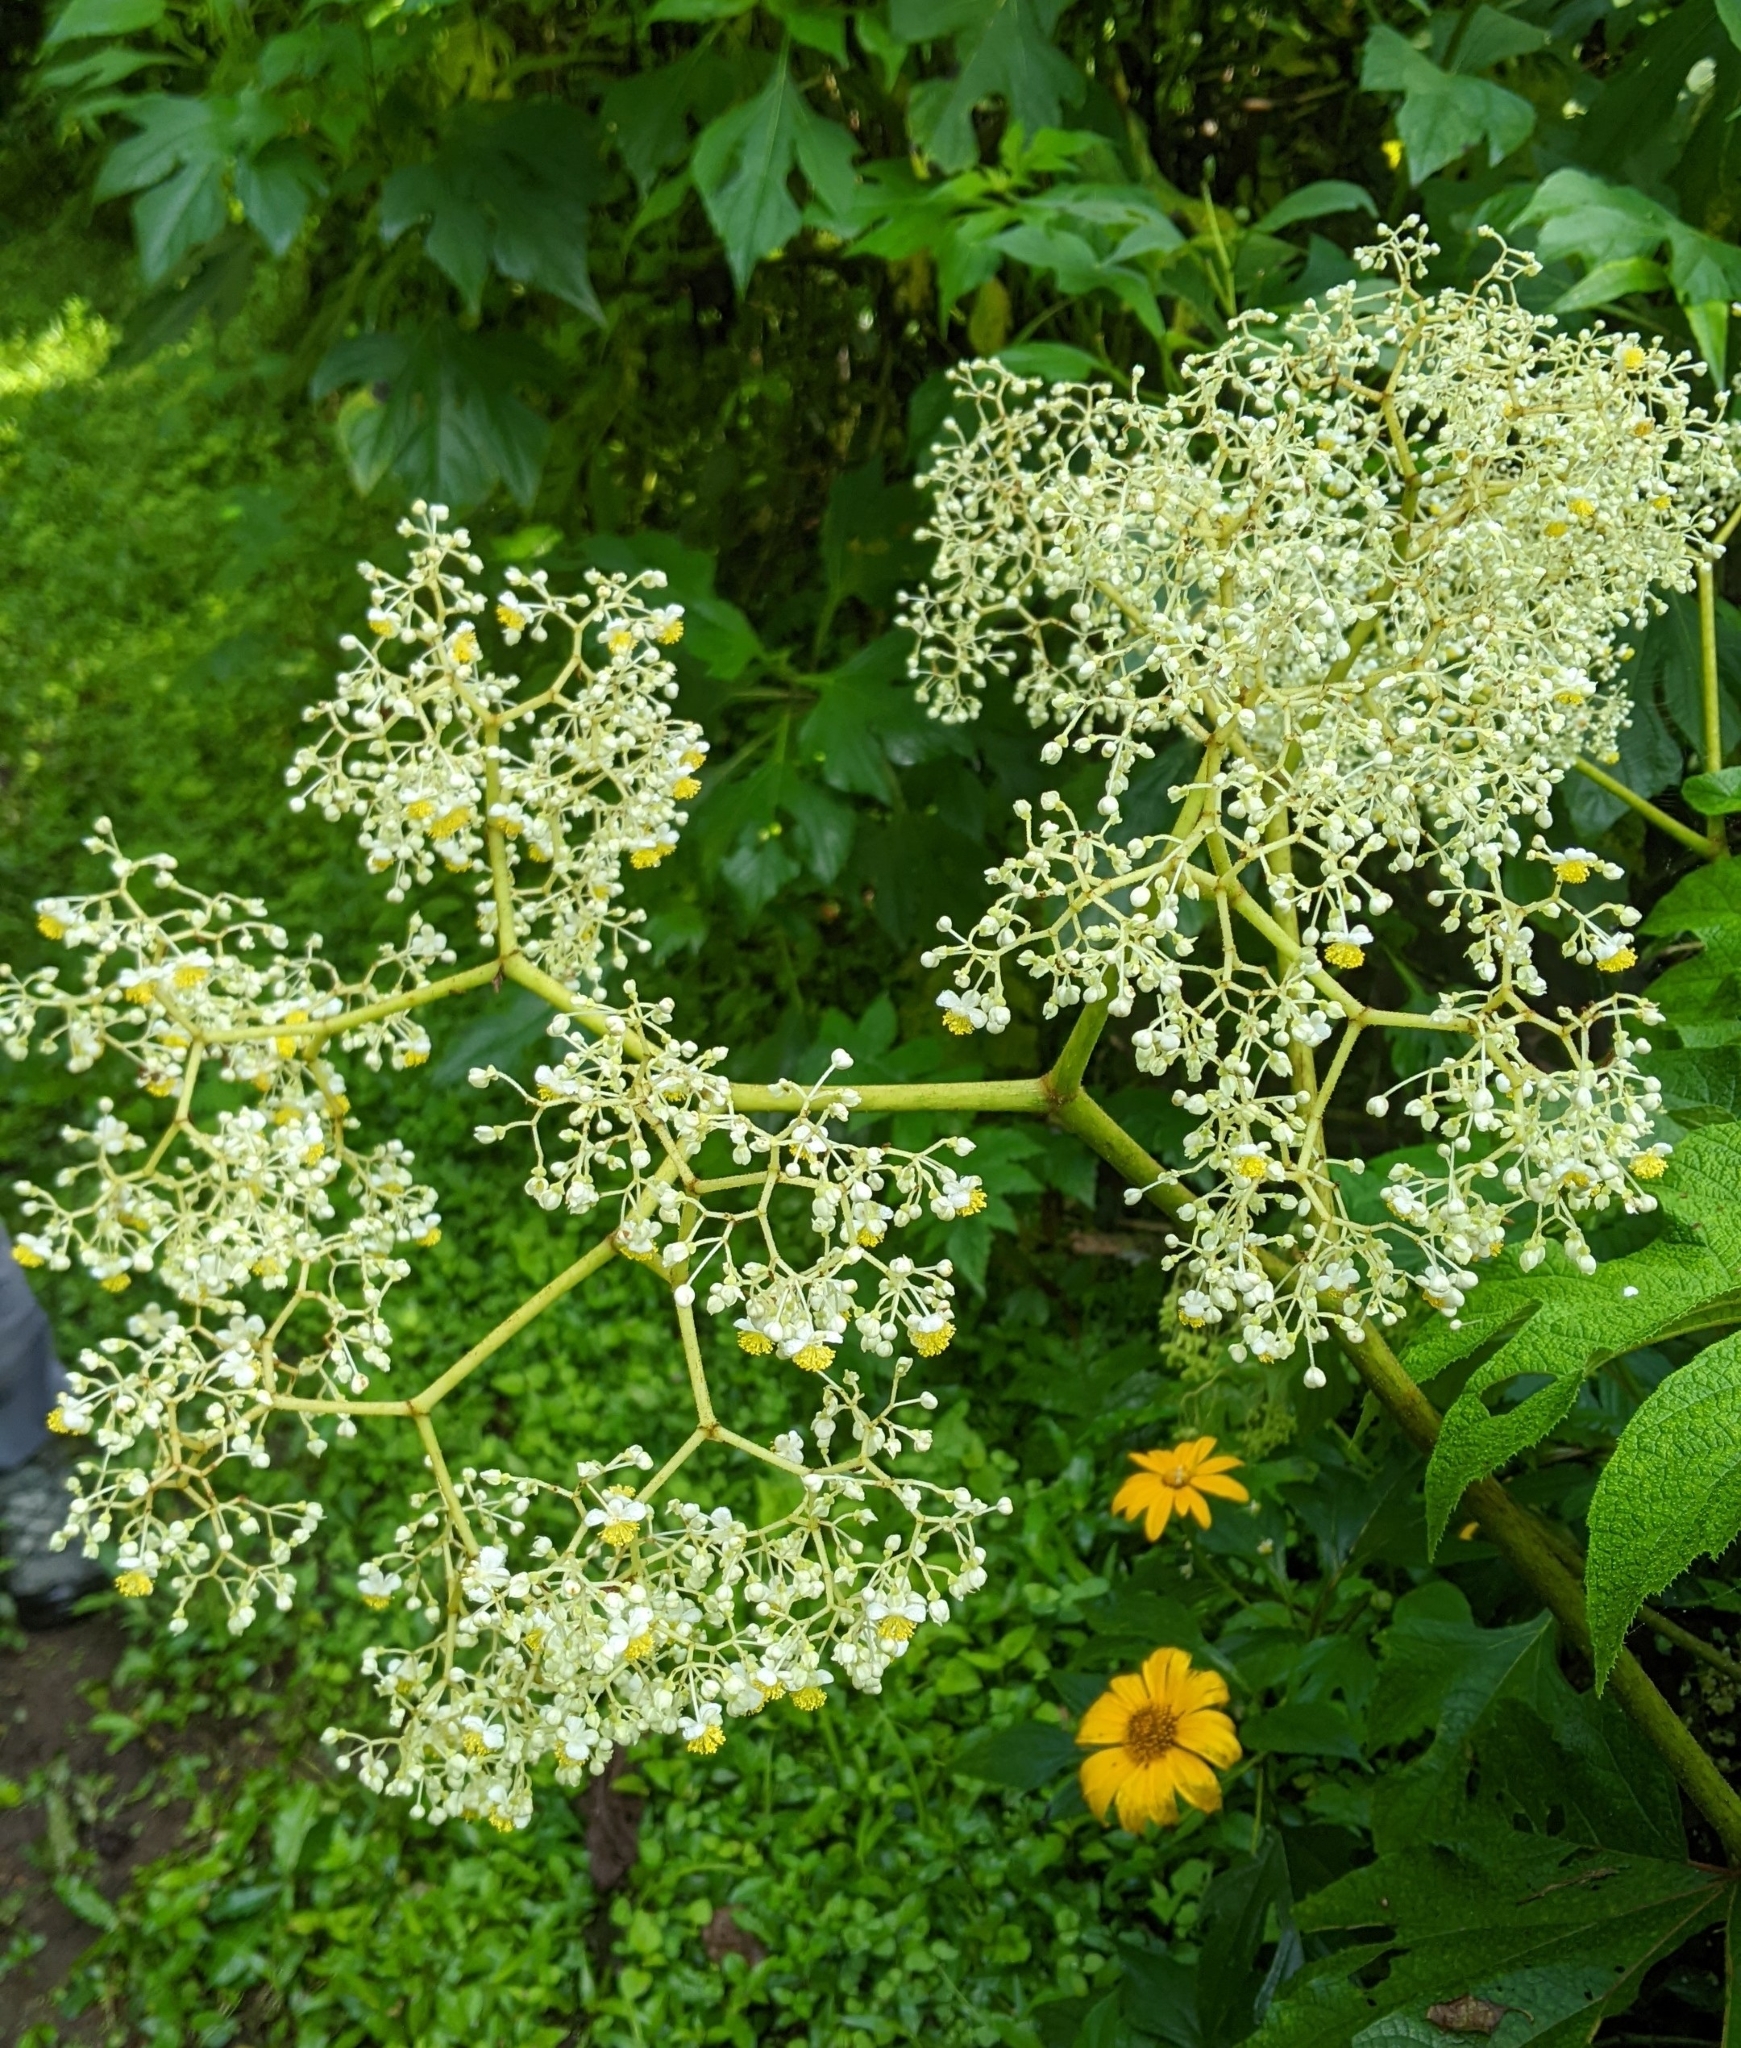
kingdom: Plantae
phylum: Tracheophyta
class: Magnoliopsida
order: Cucurbitales
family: Begoniaceae
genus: Begonia
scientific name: Begonia parviflora
